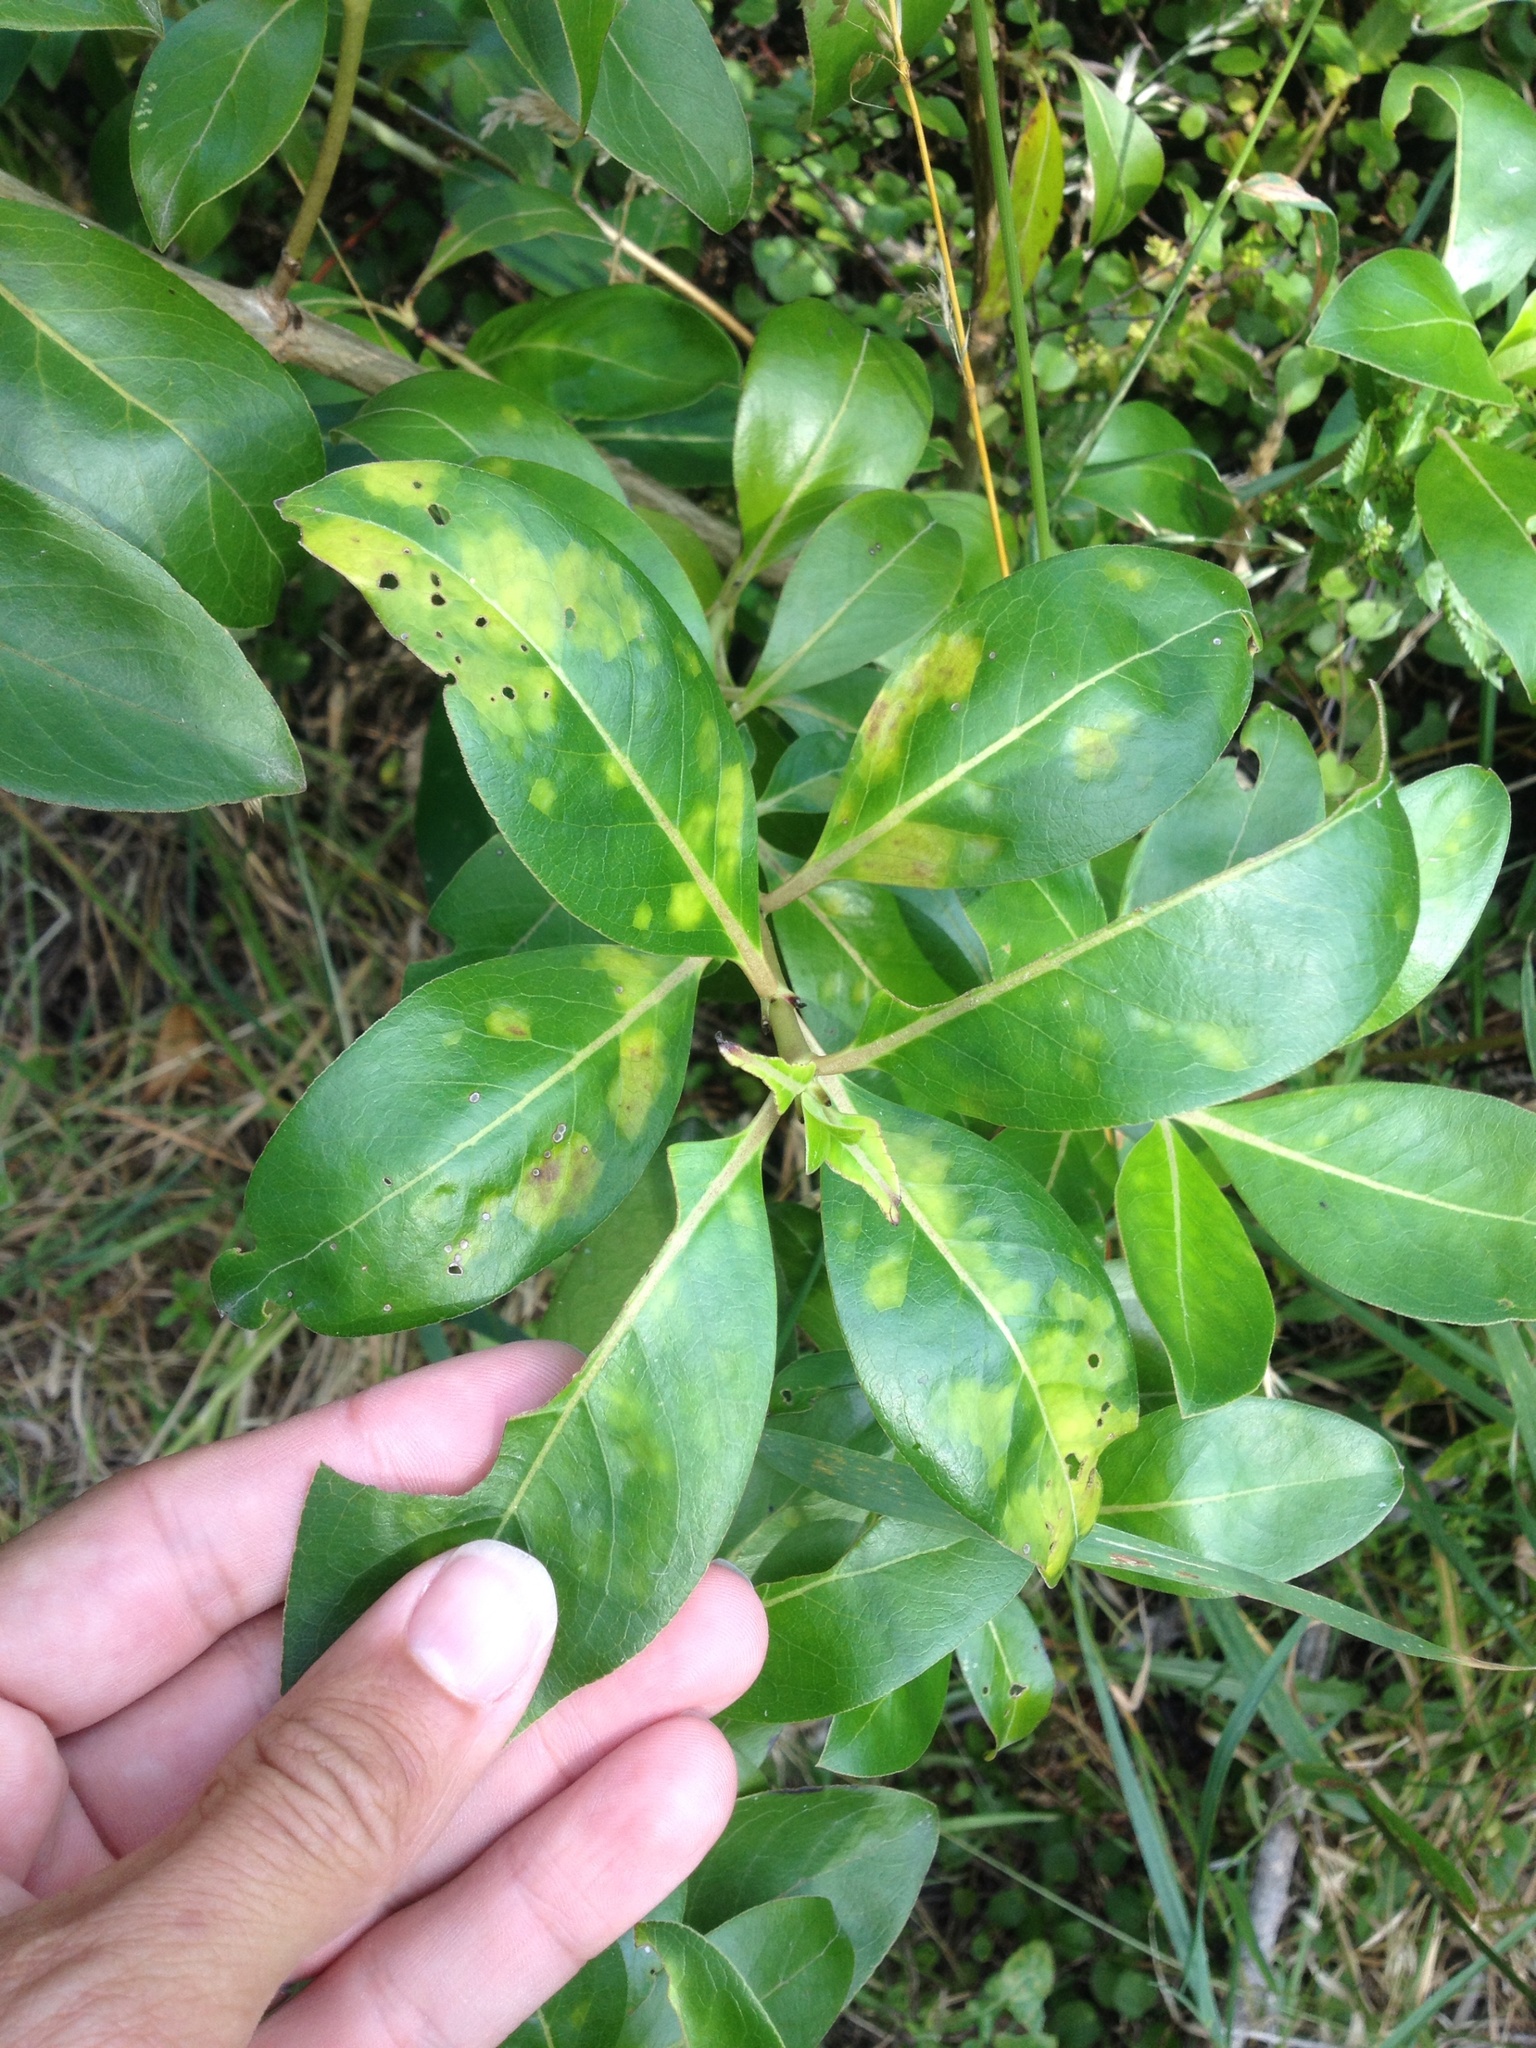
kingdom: Animalia
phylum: Arthropoda
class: Arachnida
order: Trombidiformes
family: Eriophyidae
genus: Phyllocoptes
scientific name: Phyllocoptes coprosmae
